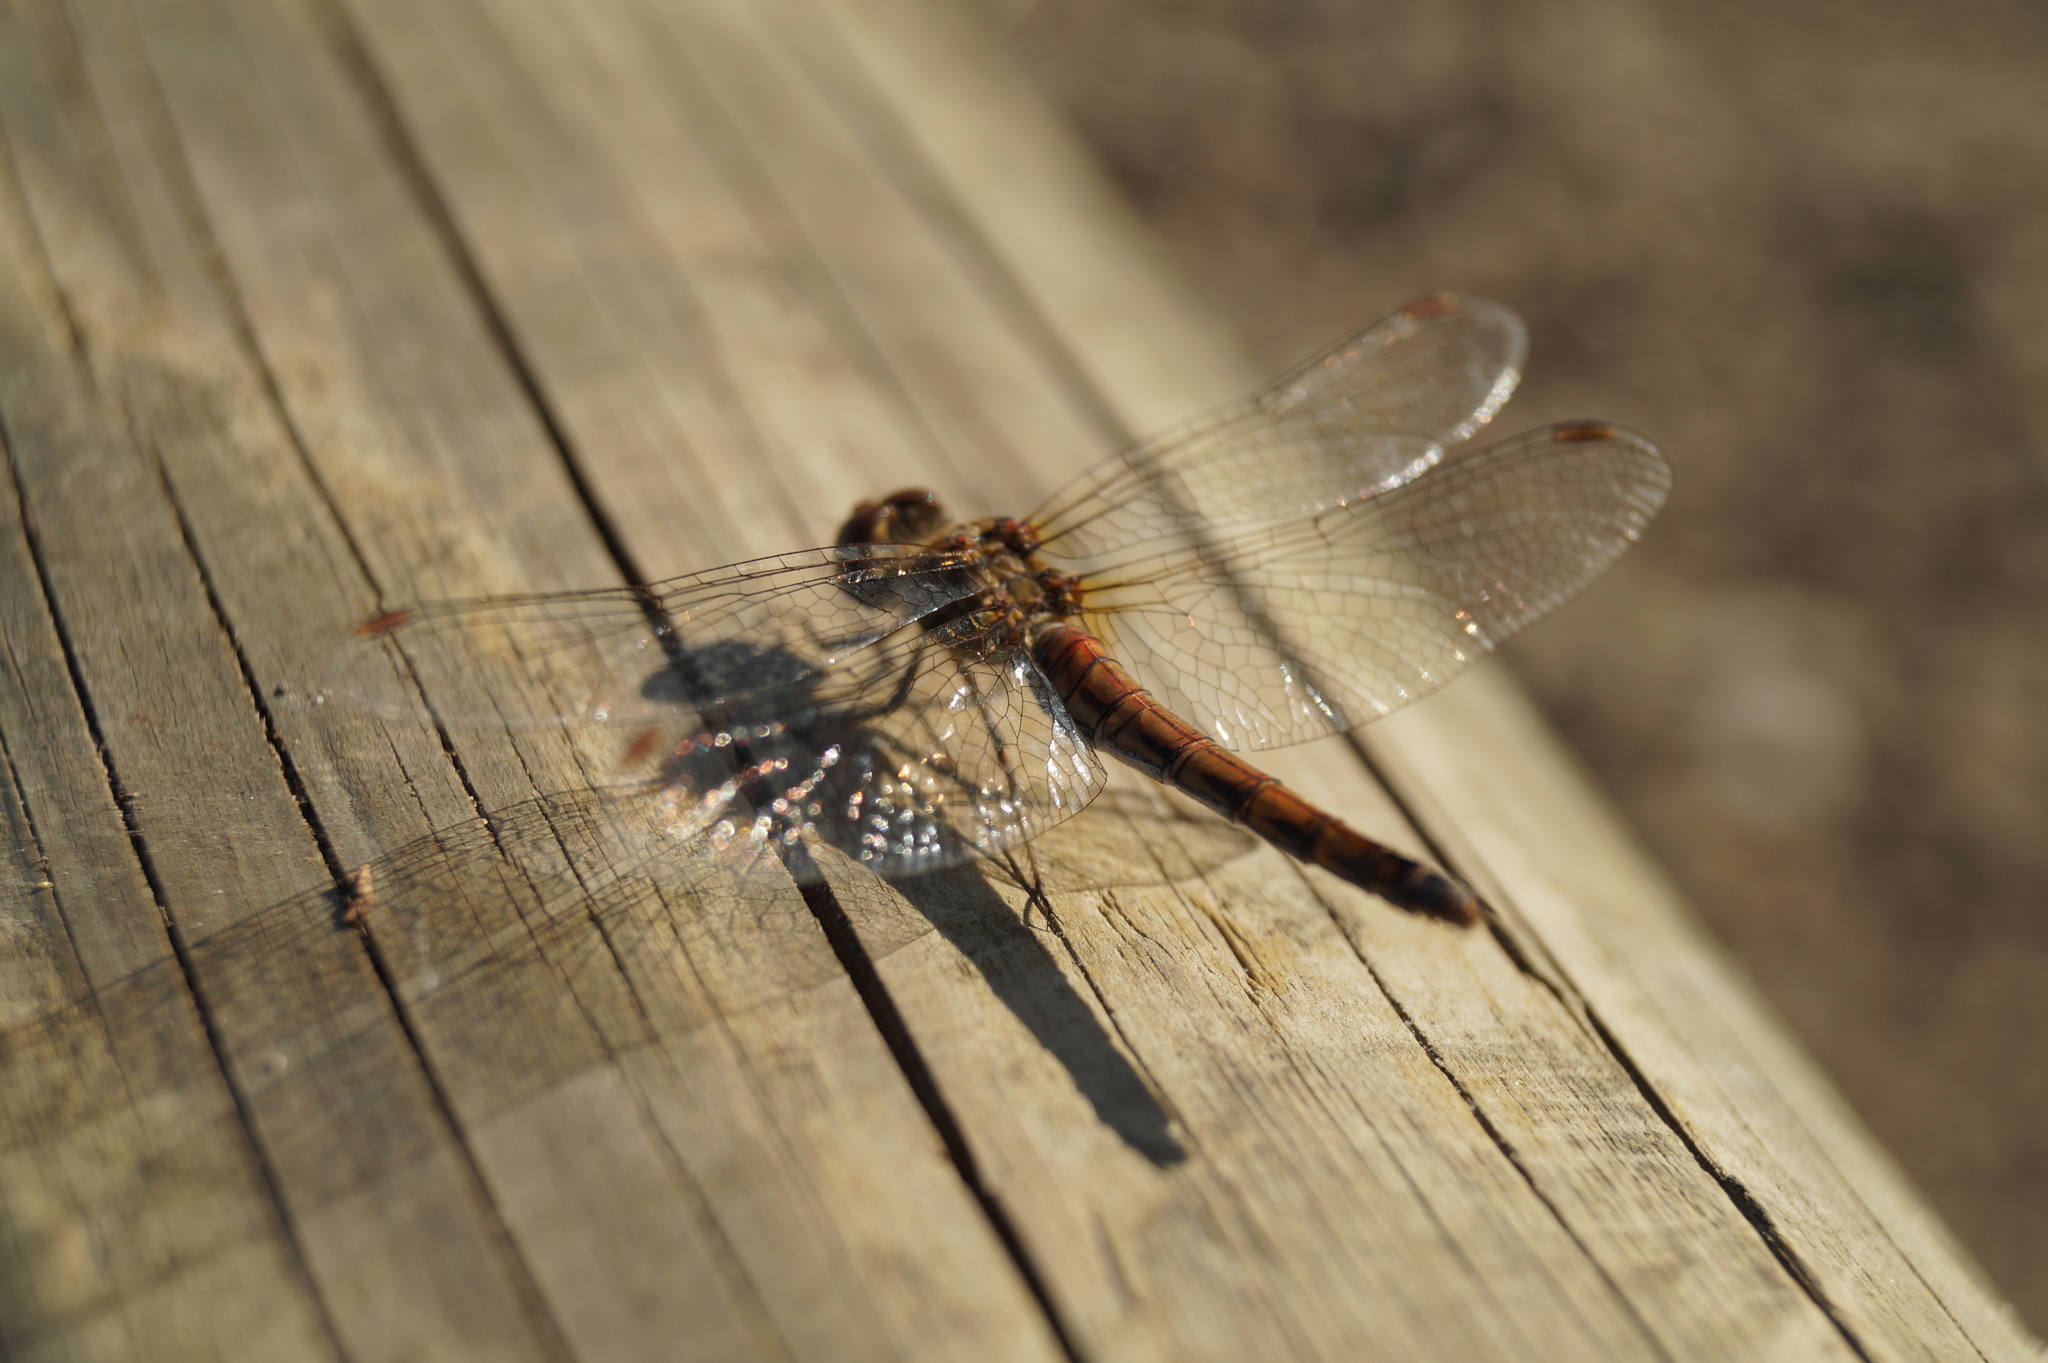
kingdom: Animalia
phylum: Arthropoda
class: Insecta
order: Odonata
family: Libellulidae
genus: Sympetrum
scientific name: Sympetrum vulgatum
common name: Vagrant darter
